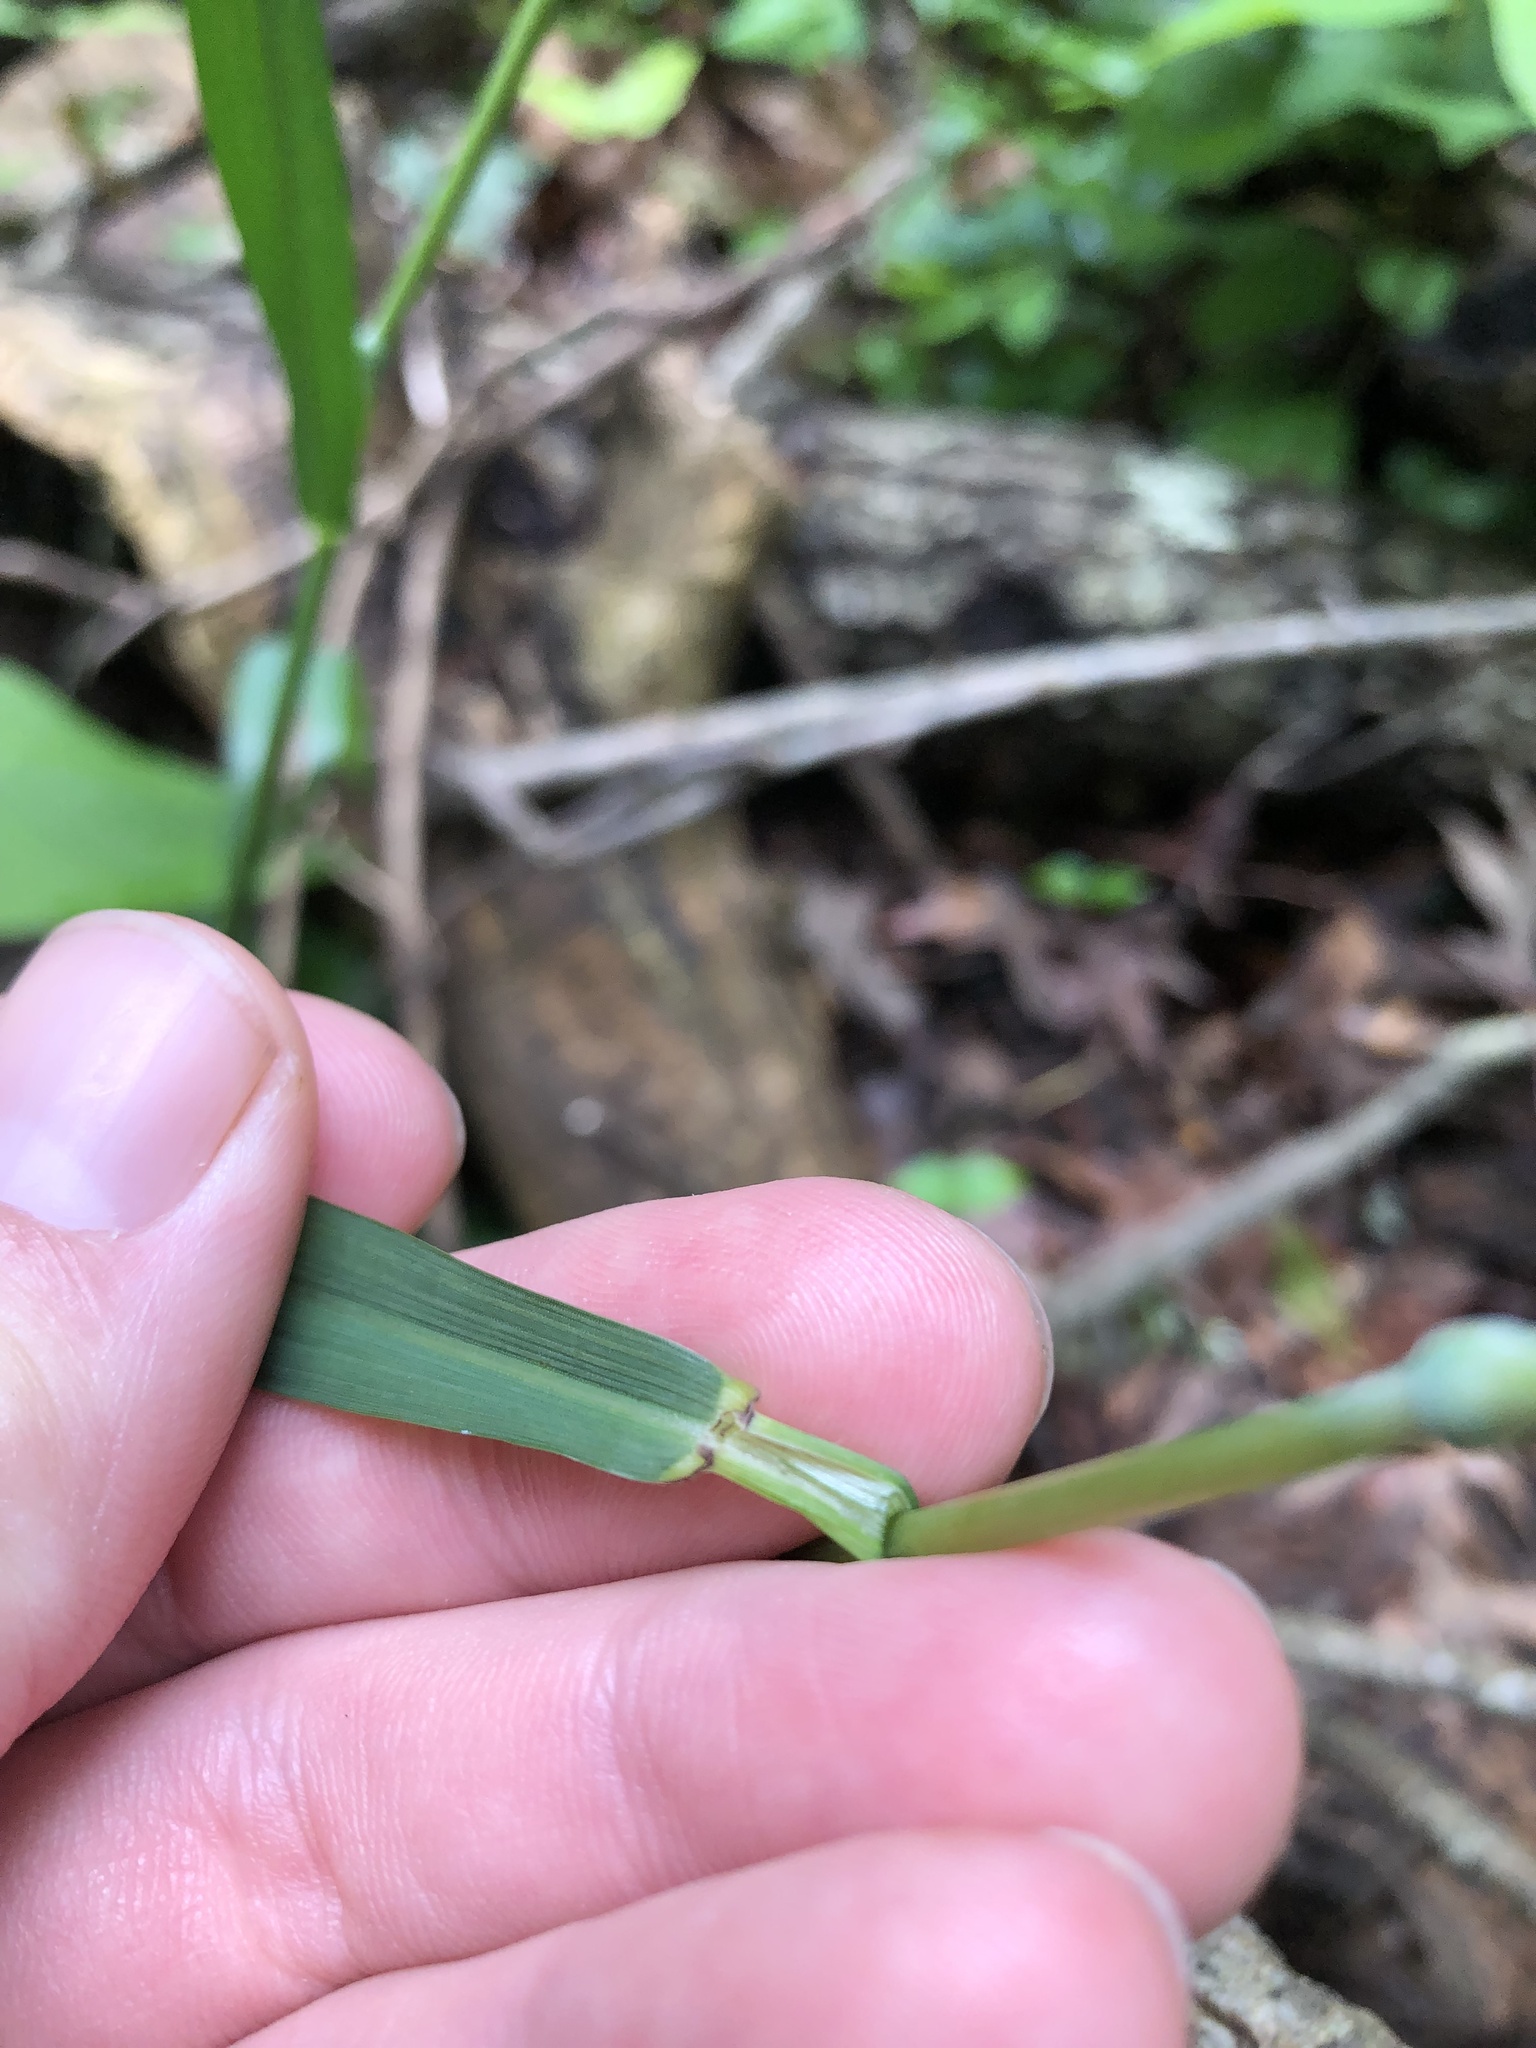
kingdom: Plantae
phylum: Tracheophyta
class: Liliopsida
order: Poales
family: Poaceae
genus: Elymus
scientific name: Elymus virginicus
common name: Common eastern wildrye
